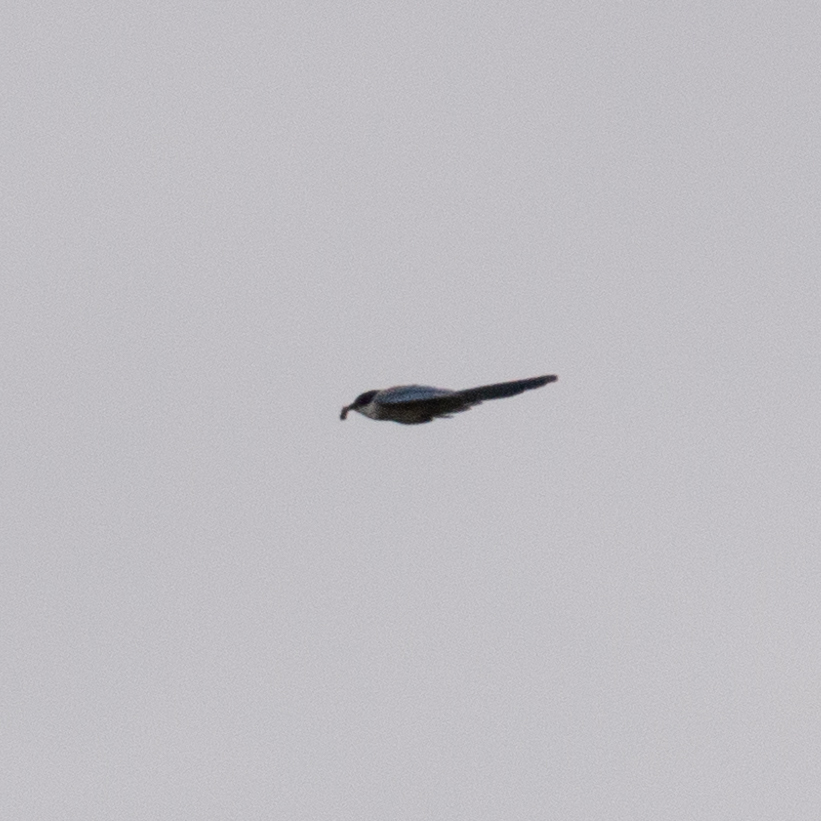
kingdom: Animalia
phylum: Chordata
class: Aves
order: Passeriformes
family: Corvidae
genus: Cyanopica
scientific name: Cyanopica cooki
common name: Iberian magpie
